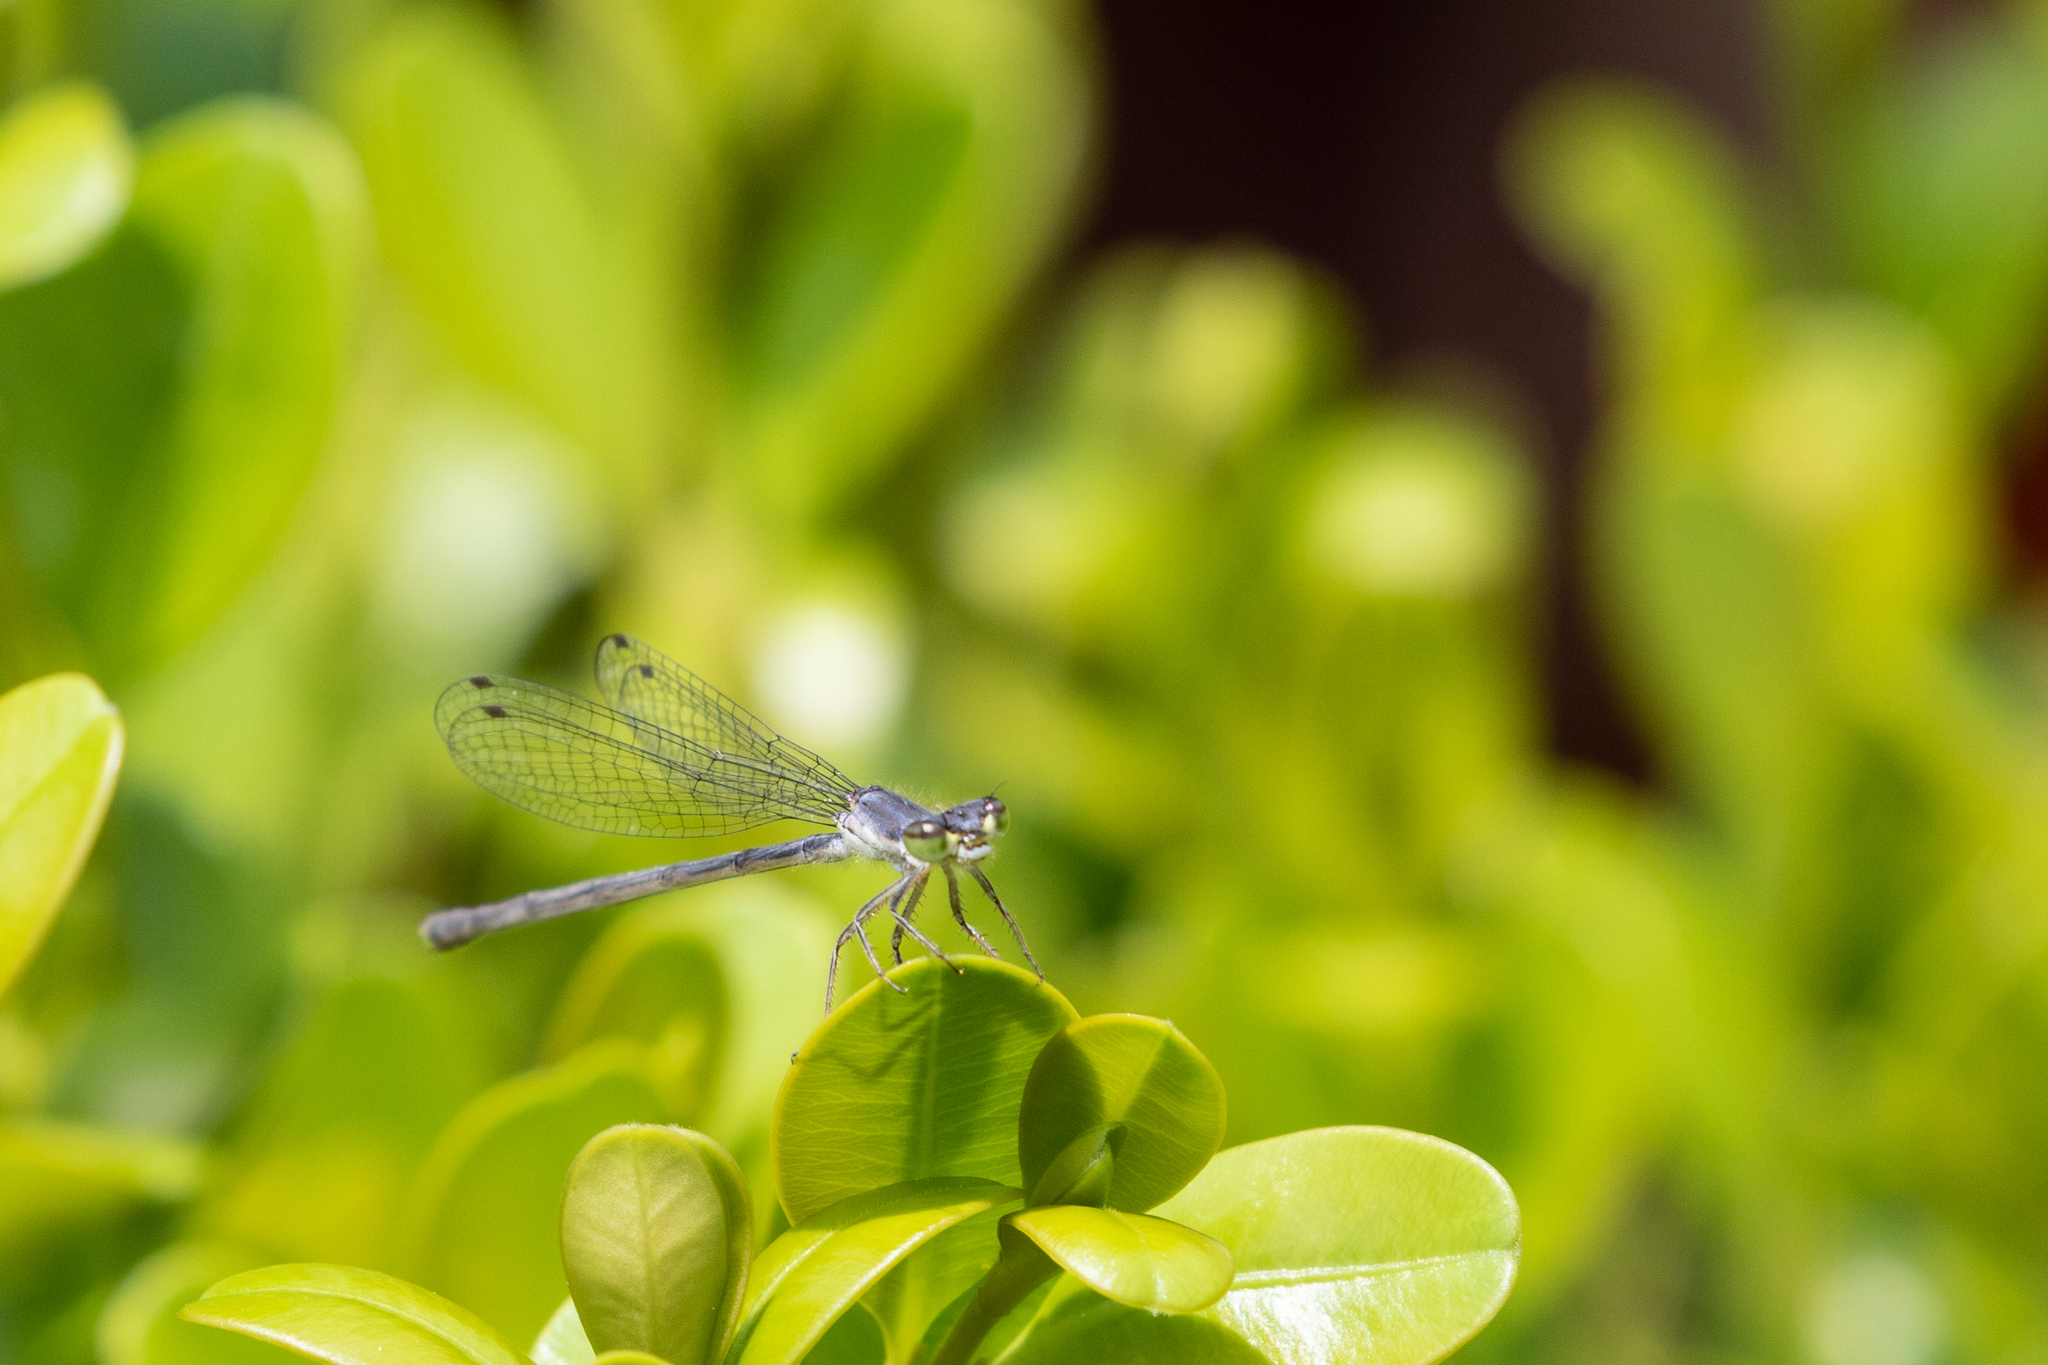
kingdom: Animalia
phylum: Arthropoda
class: Insecta
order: Odonata
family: Coenagrionidae
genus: Ischnura
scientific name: Ischnura posita
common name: Fragile forktail
